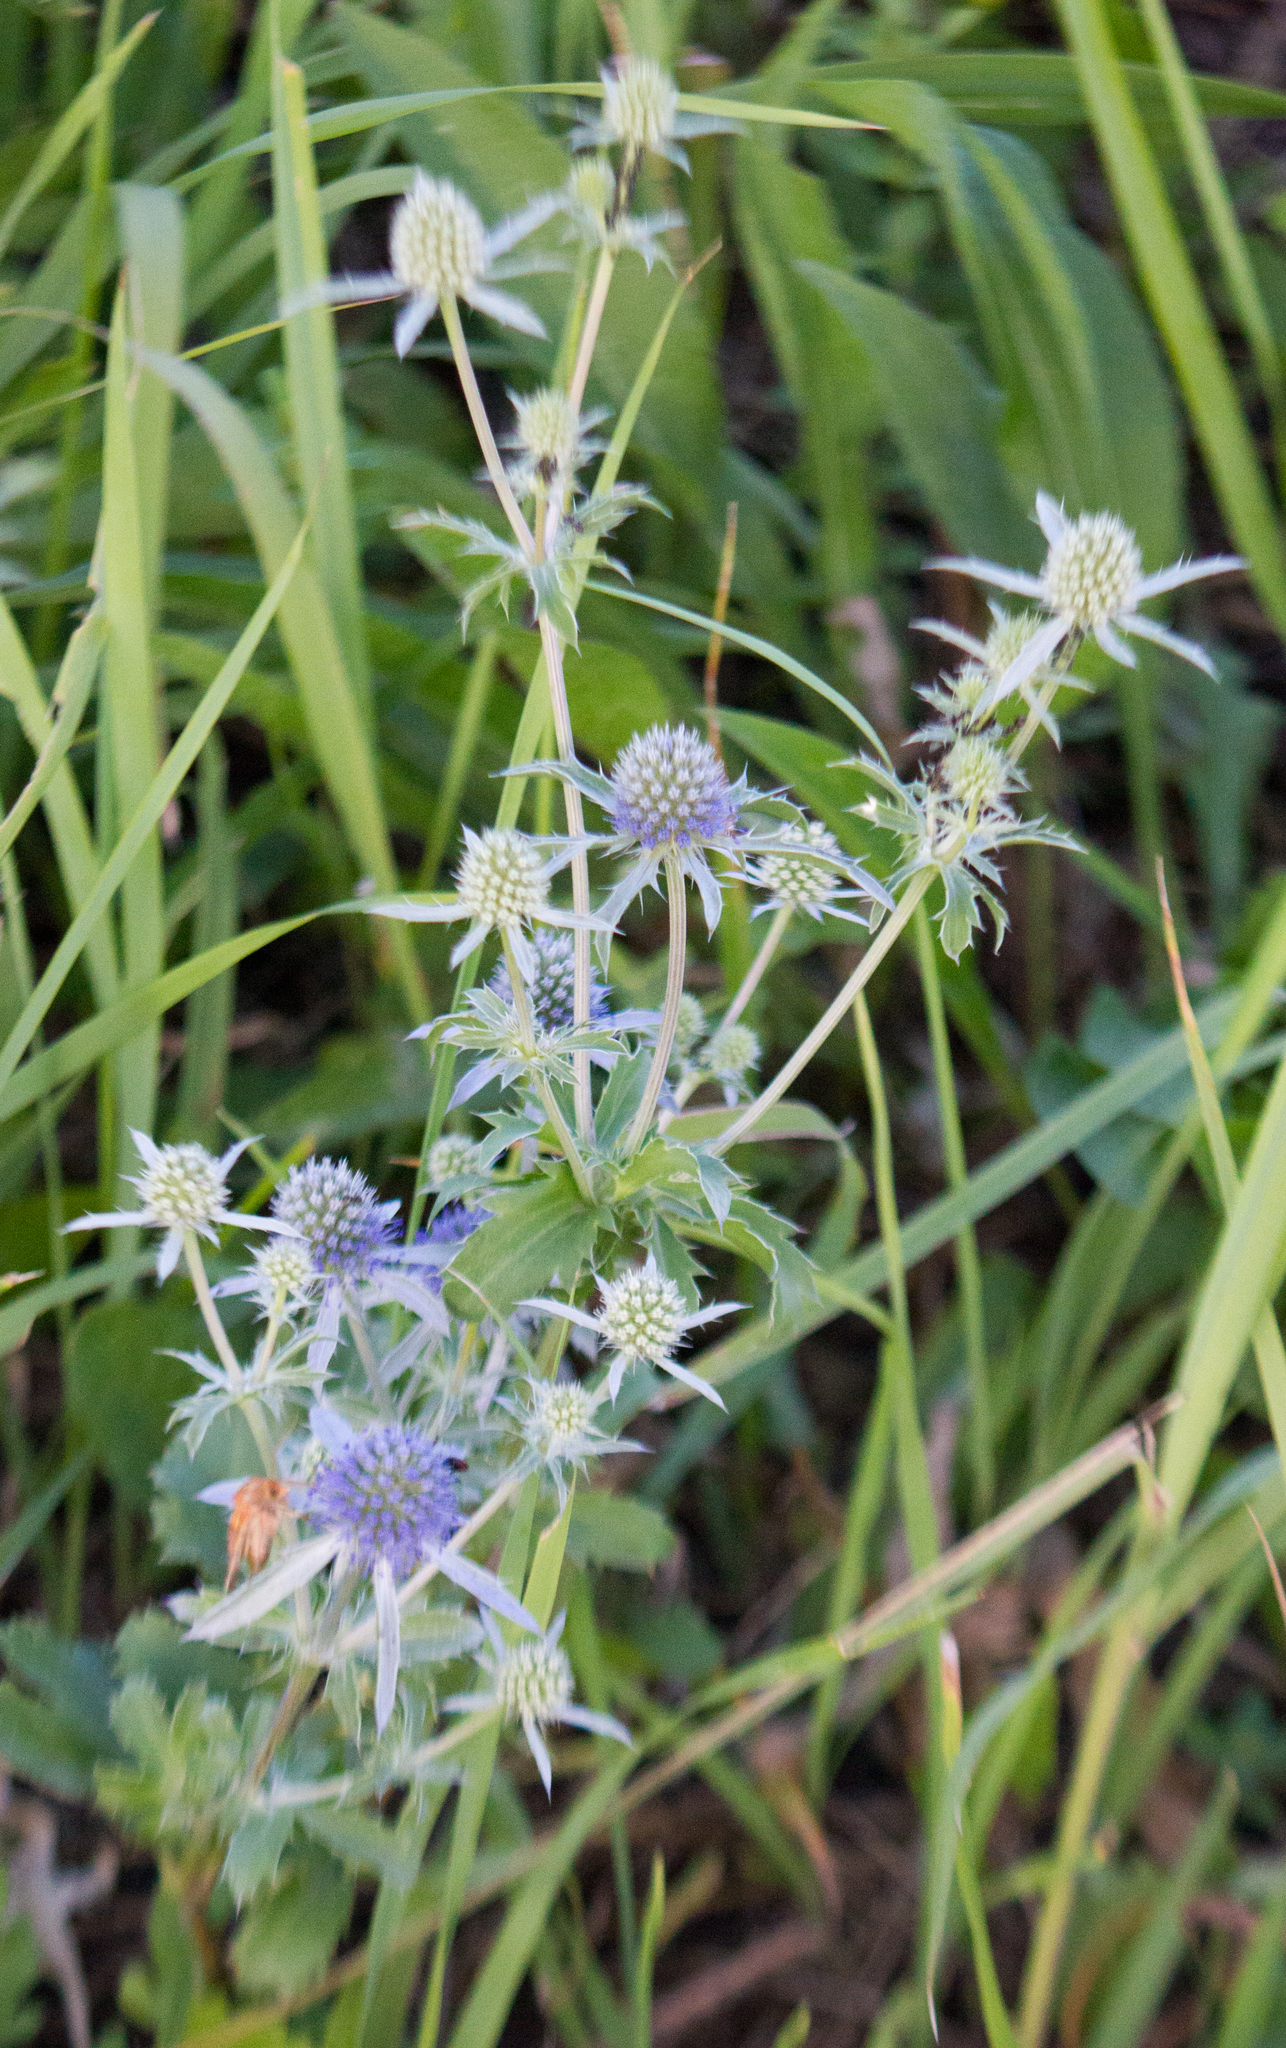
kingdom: Plantae
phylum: Tracheophyta
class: Magnoliopsida
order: Apiales
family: Apiaceae
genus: Eryngium
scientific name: Eryngium planum
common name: Blue eryngo
